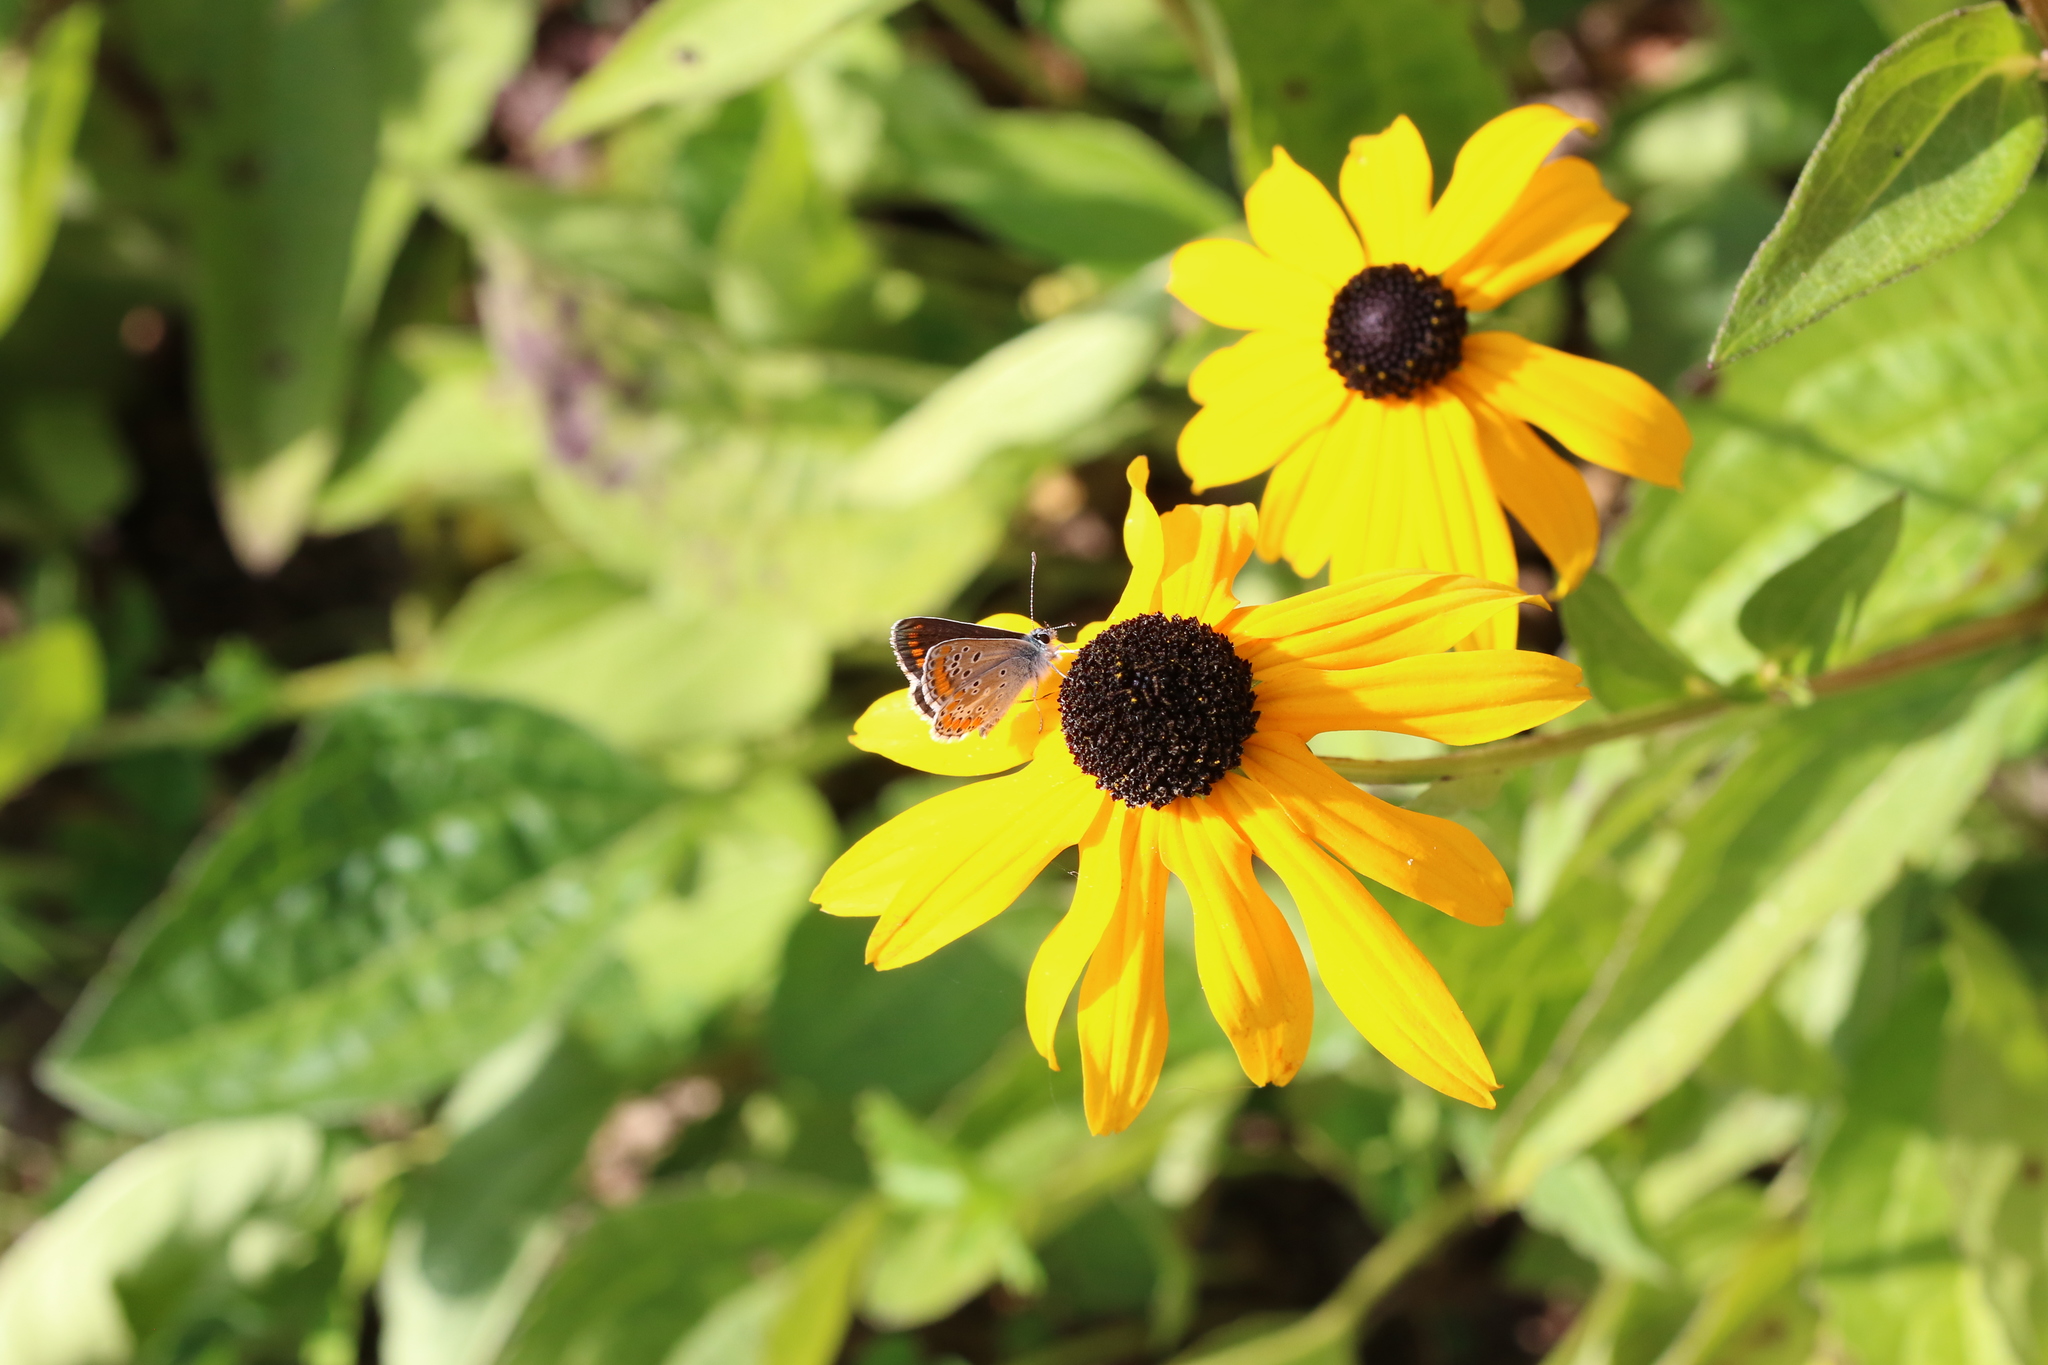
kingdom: Animalia
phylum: Arthropoda
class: Insecta
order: Lepidoptera
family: Lycaenidae
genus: Aricia
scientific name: Aricia agestis
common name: Brown argus
